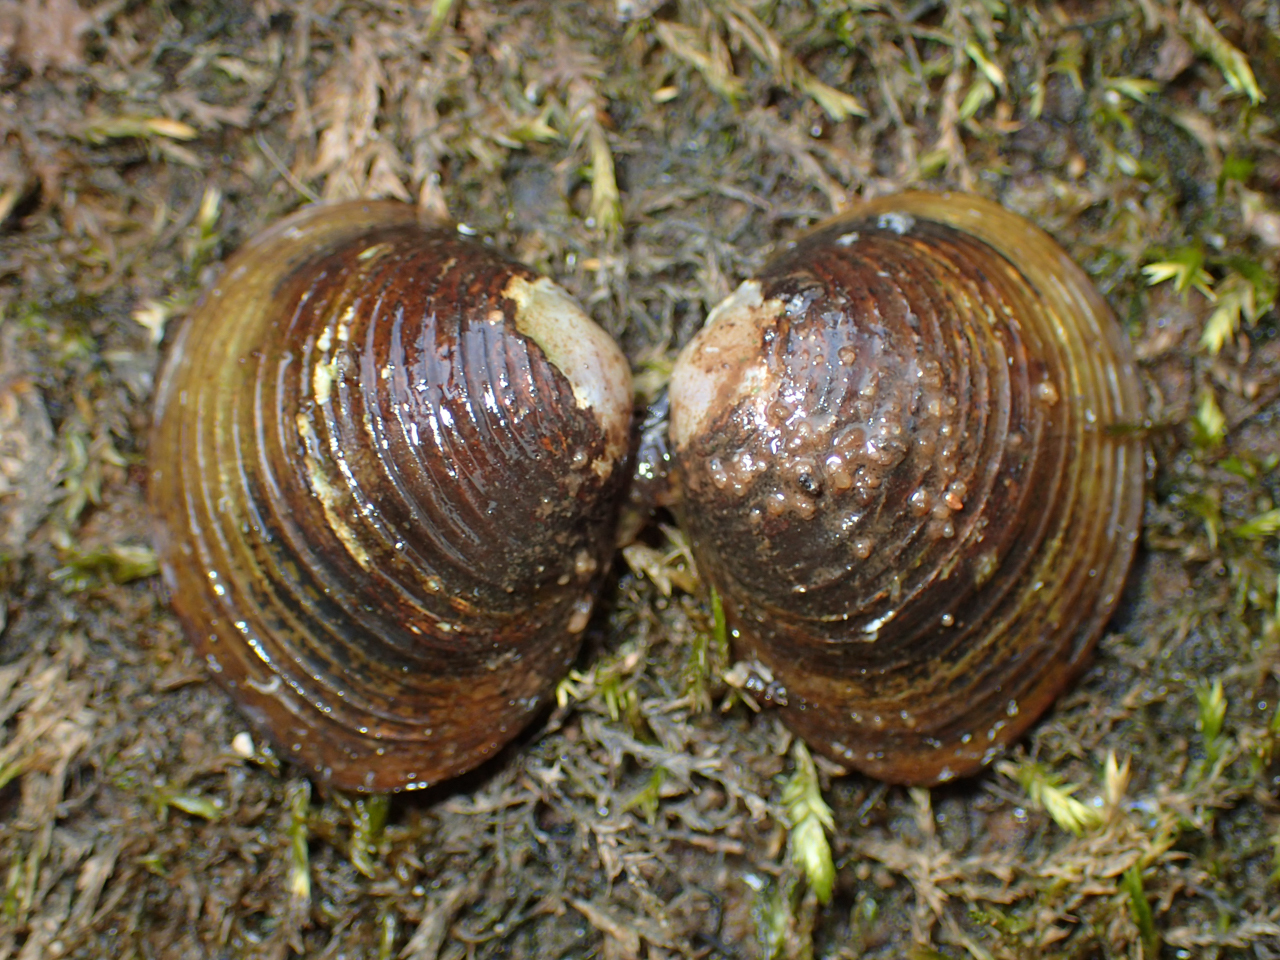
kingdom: Animalia
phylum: Mollusca
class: Bivalvia
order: Venerida
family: Cyrenidae
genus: Corbicula
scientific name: Corbicula fluminea
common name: Asian clam
